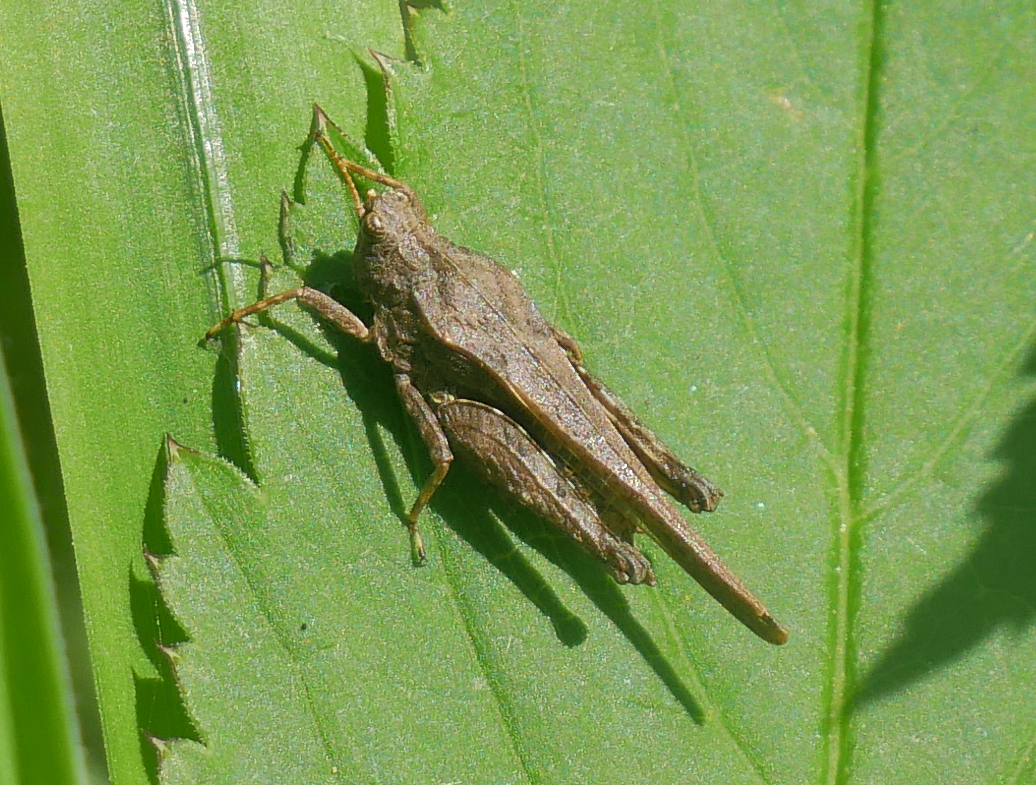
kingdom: Animalia
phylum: Arthropoda
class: Insecta
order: Orthoptera
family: Tetrigidae
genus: Tetrix
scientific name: Tetrix subulata
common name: Slender ground-hopper
